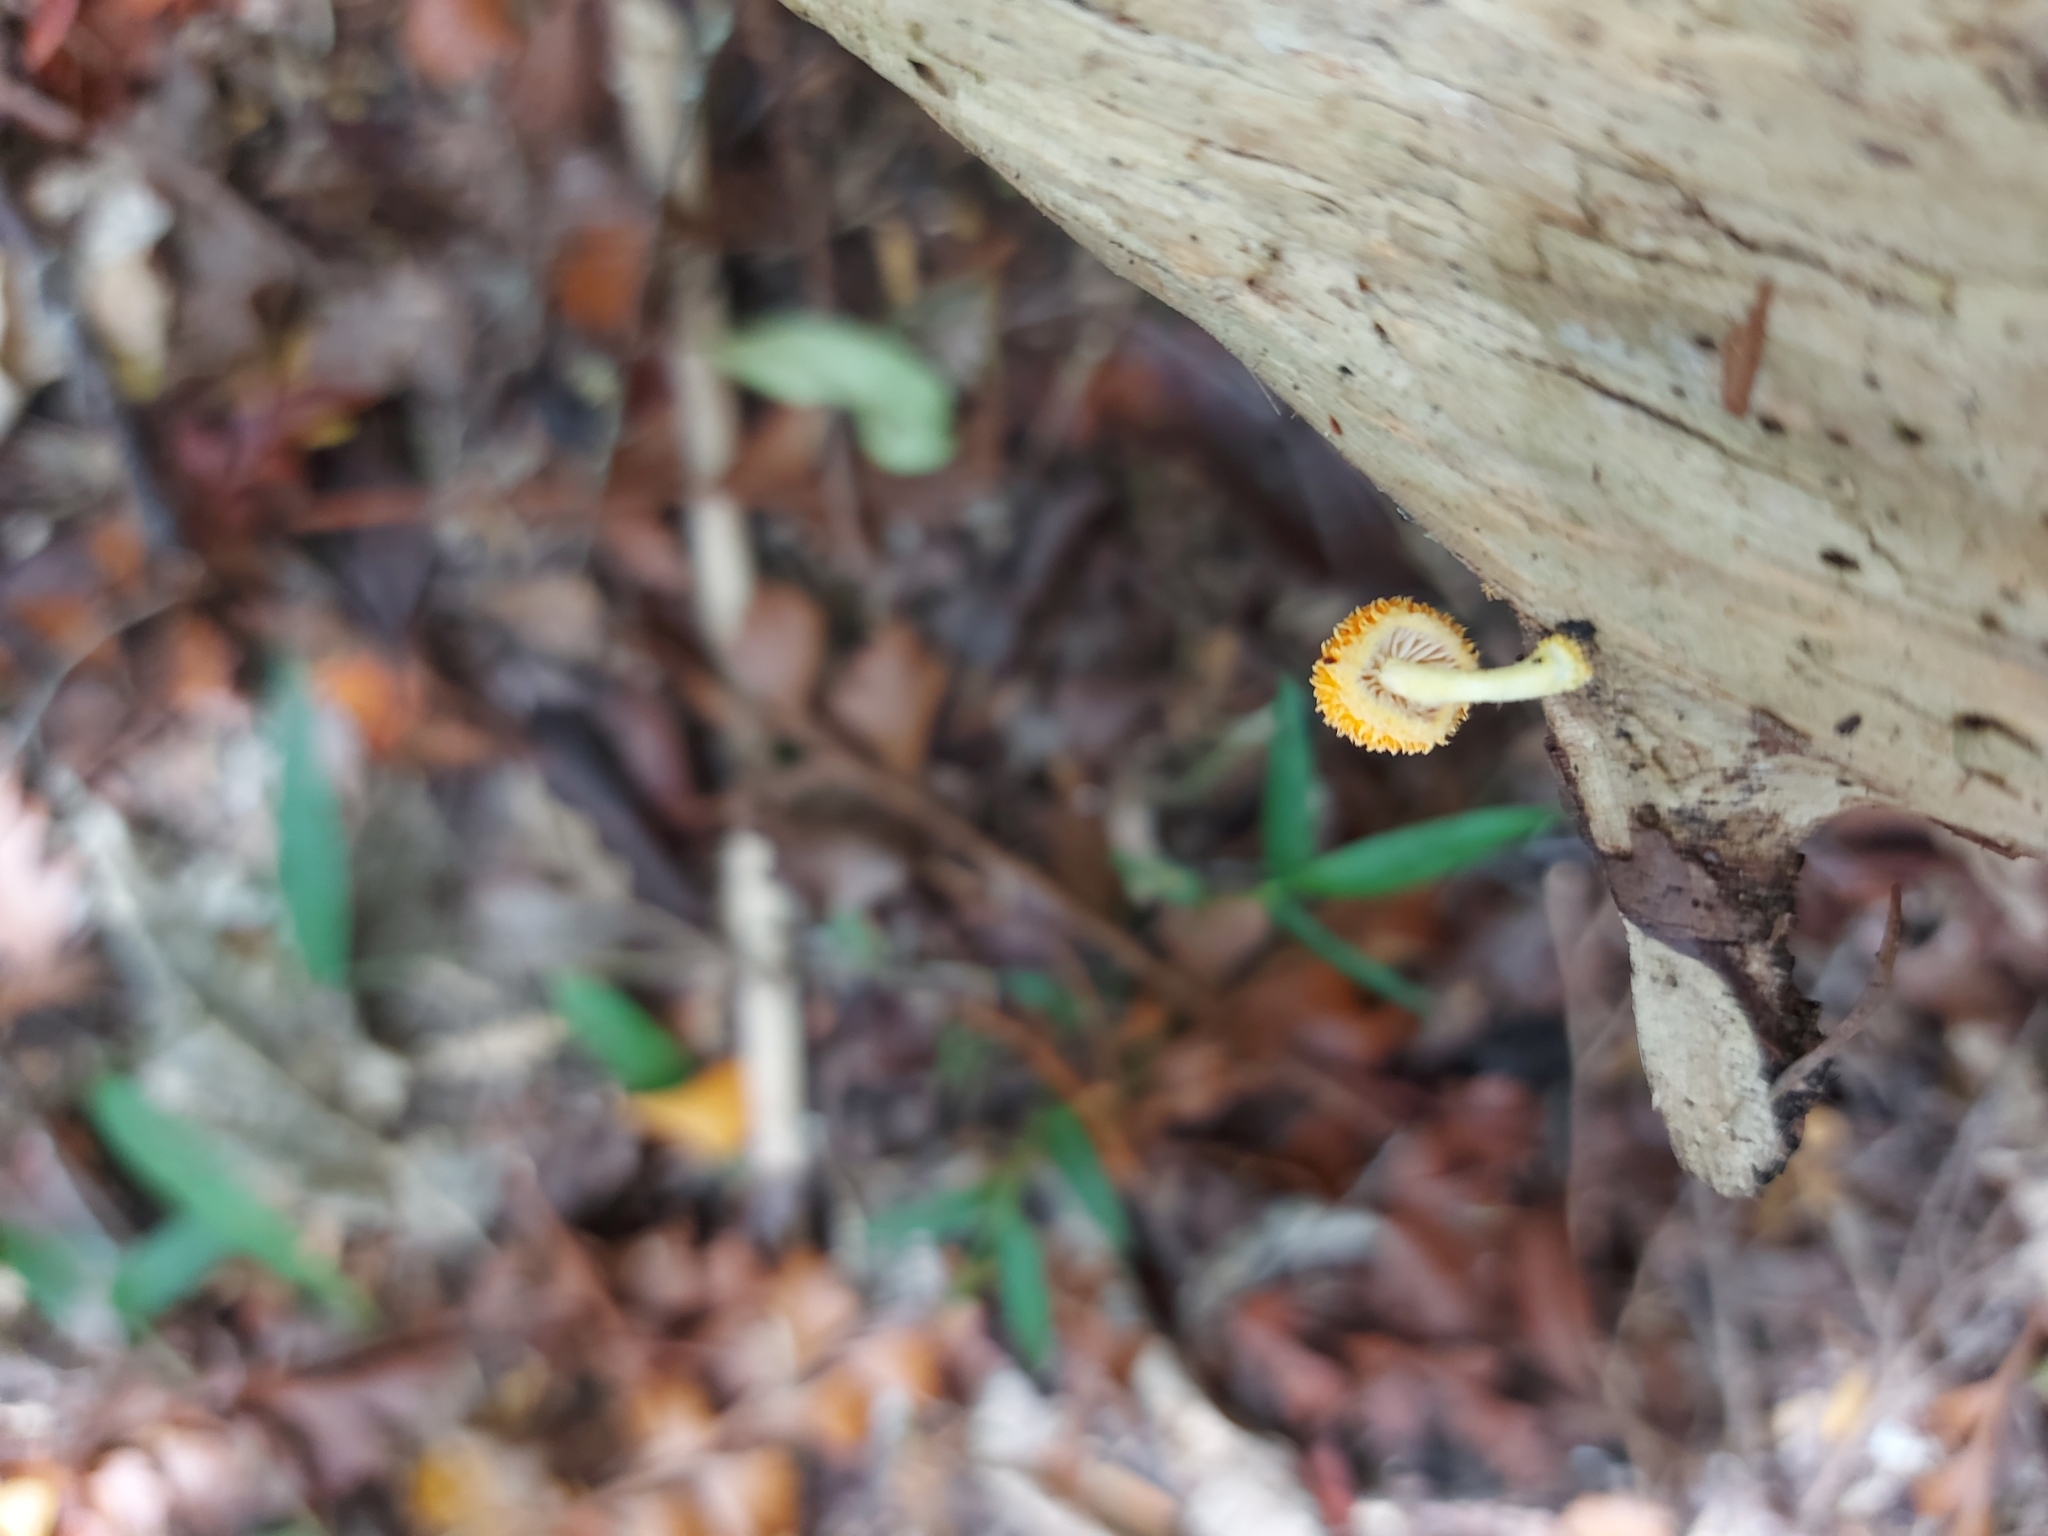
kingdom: Fungi
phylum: Basidiomycota
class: Agaricomycetes
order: Agaricales
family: Physalacriaceae
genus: Cyptotrama
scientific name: Cyptotrama asprata
